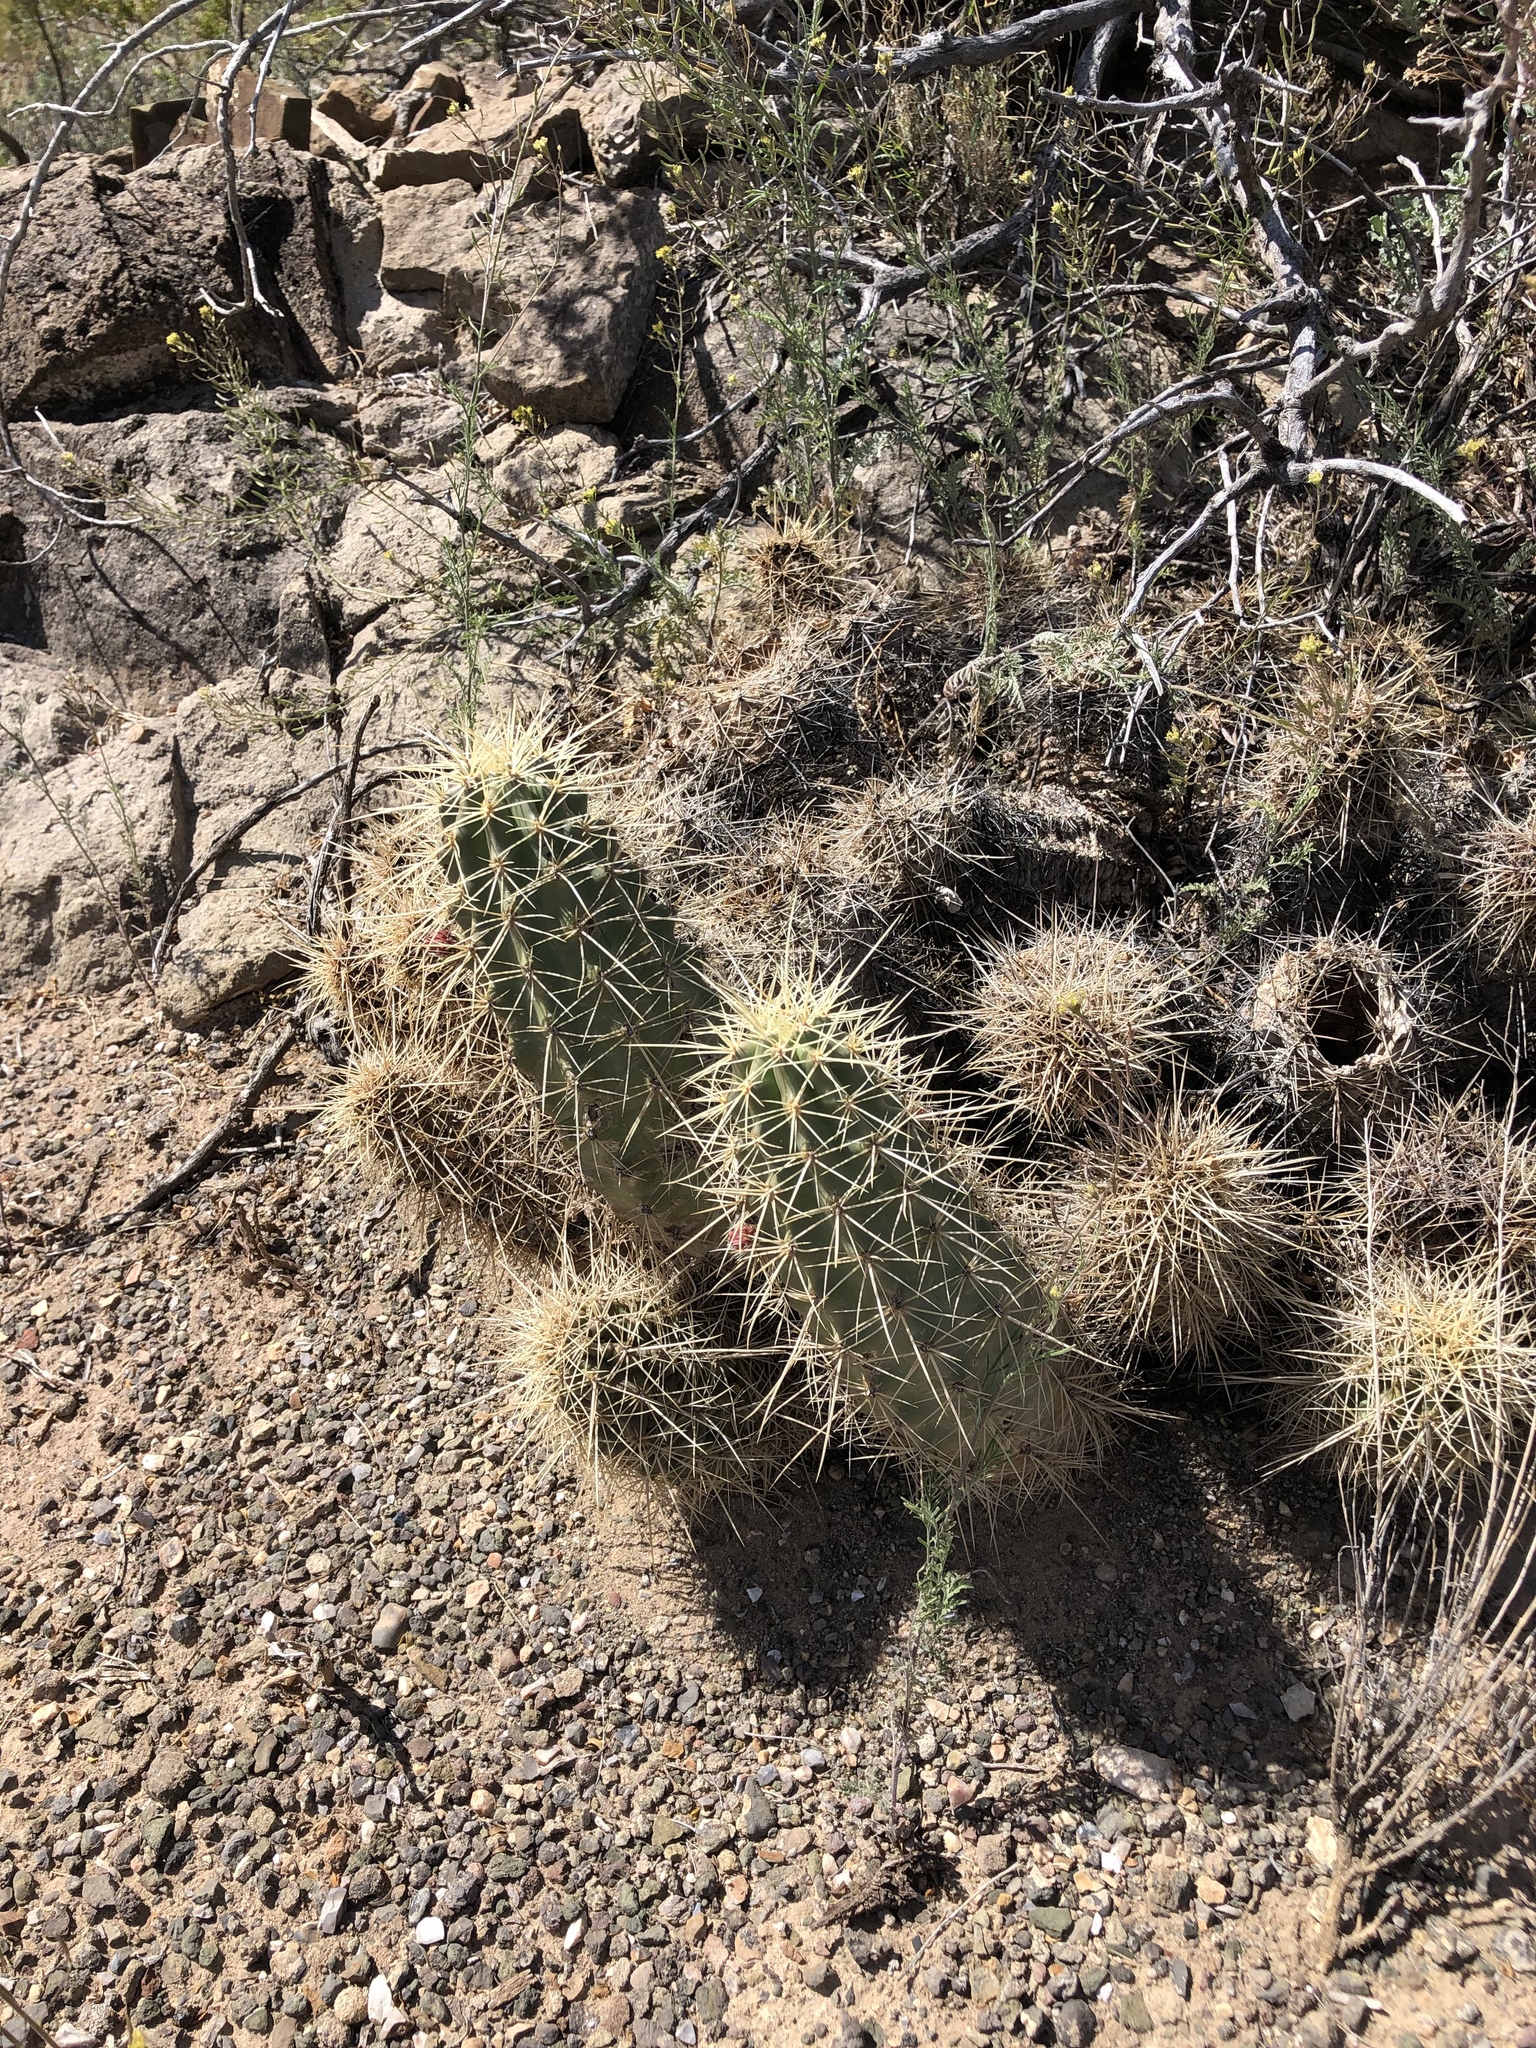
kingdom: Plantae
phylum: Tracheophyta
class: Magnoliopsida
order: Caryophyllales
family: Cactaceae
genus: Echinocereus
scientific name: Echinocereus coccineus
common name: Scarlet hedgehog cactus
